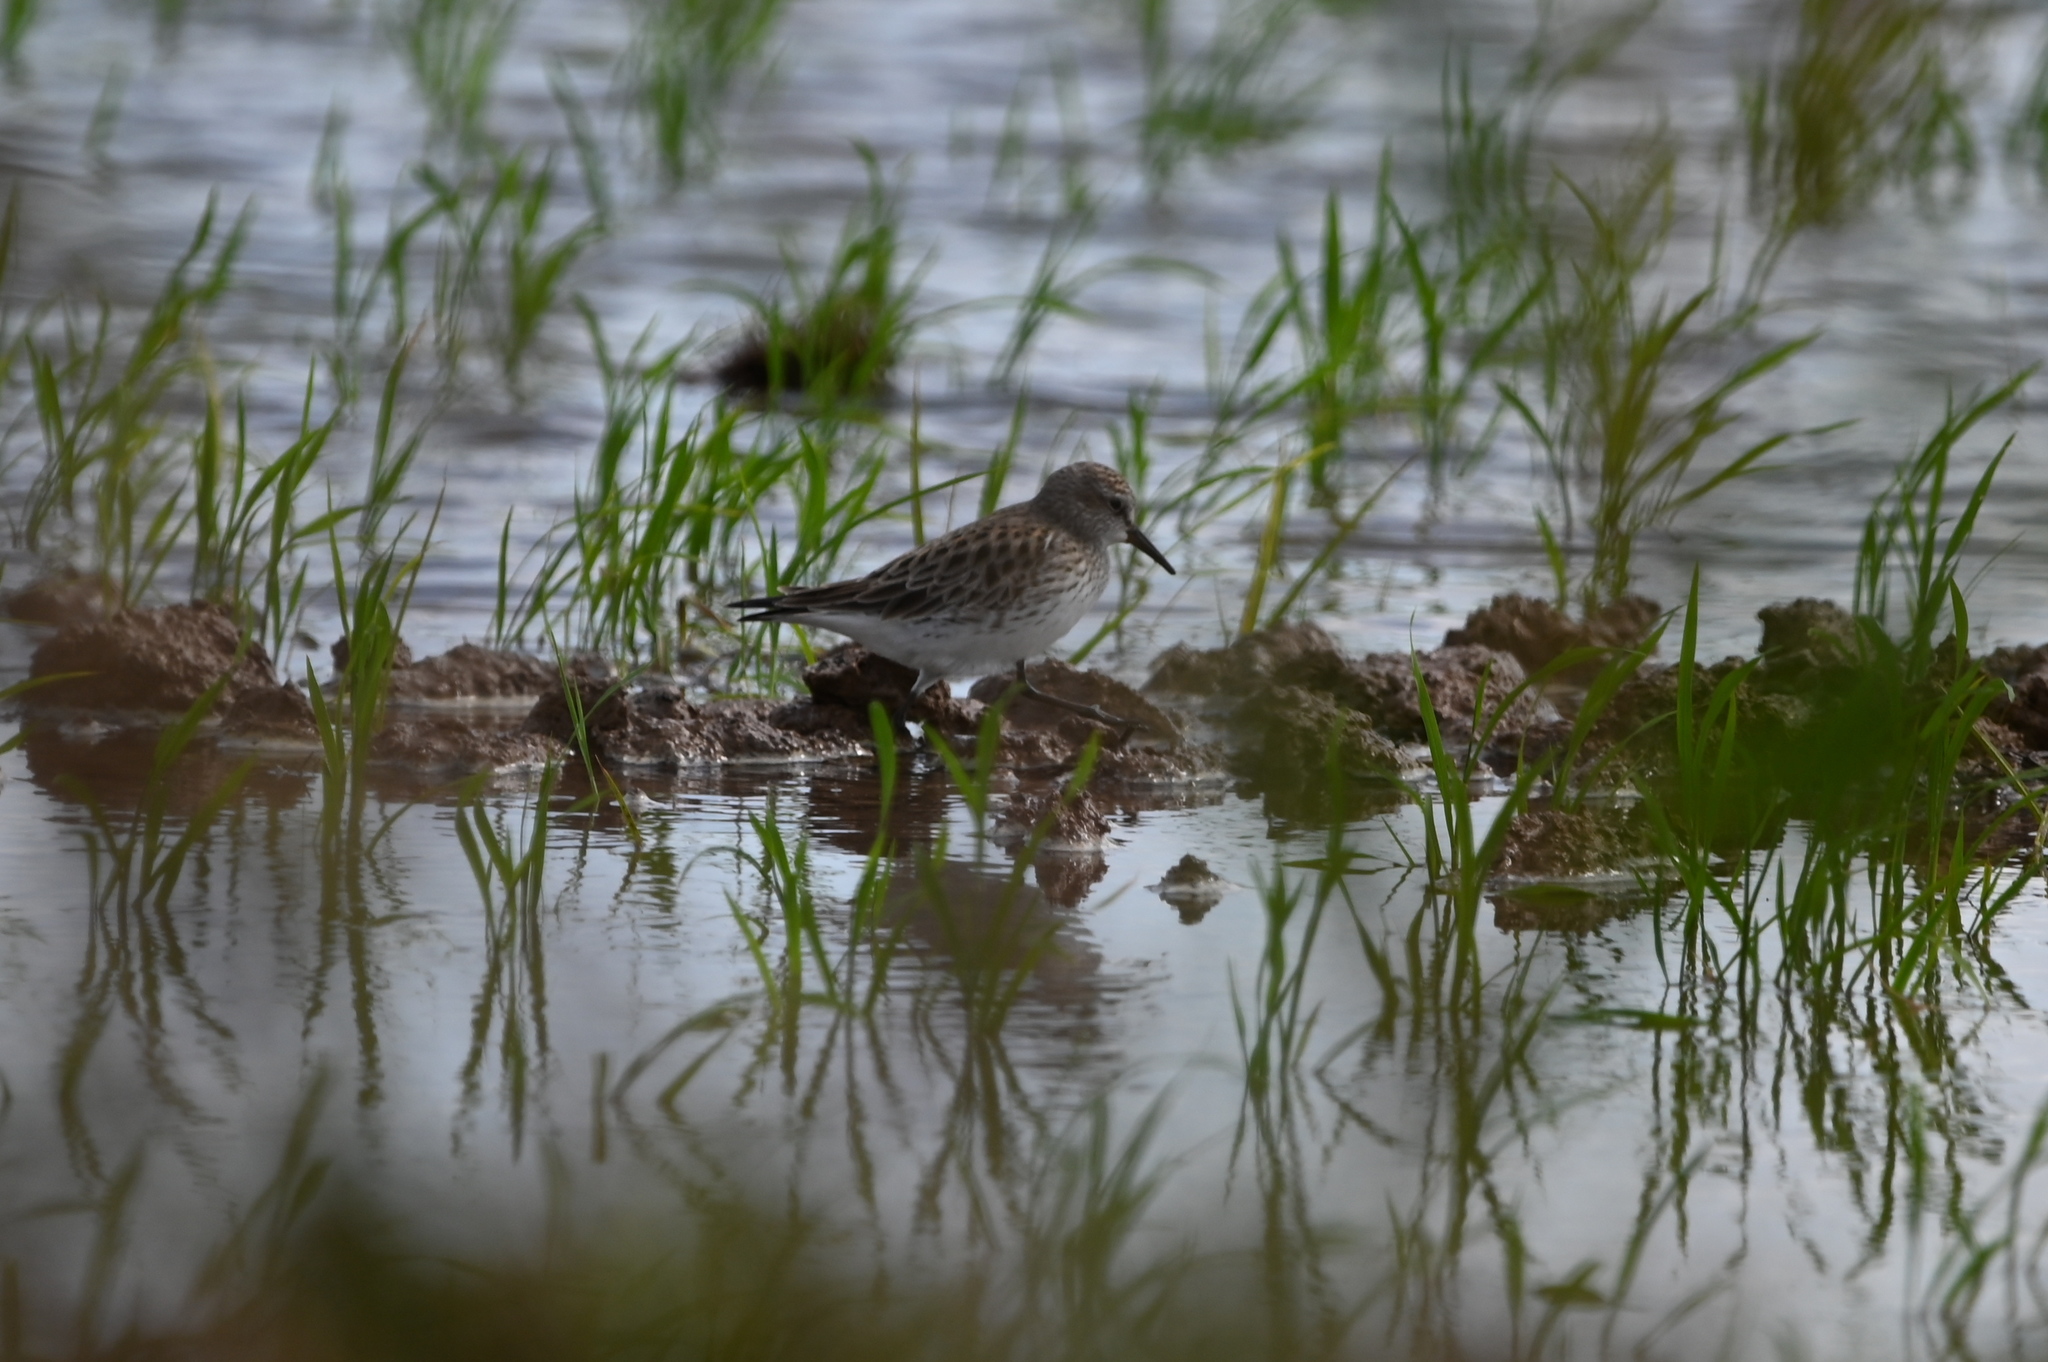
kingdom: Animalia
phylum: Chordata
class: Aves
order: Charadriiformes
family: Scolopacidae
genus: Calidris
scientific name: Calidris fuscicollis
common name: White-rumped sandpiper
